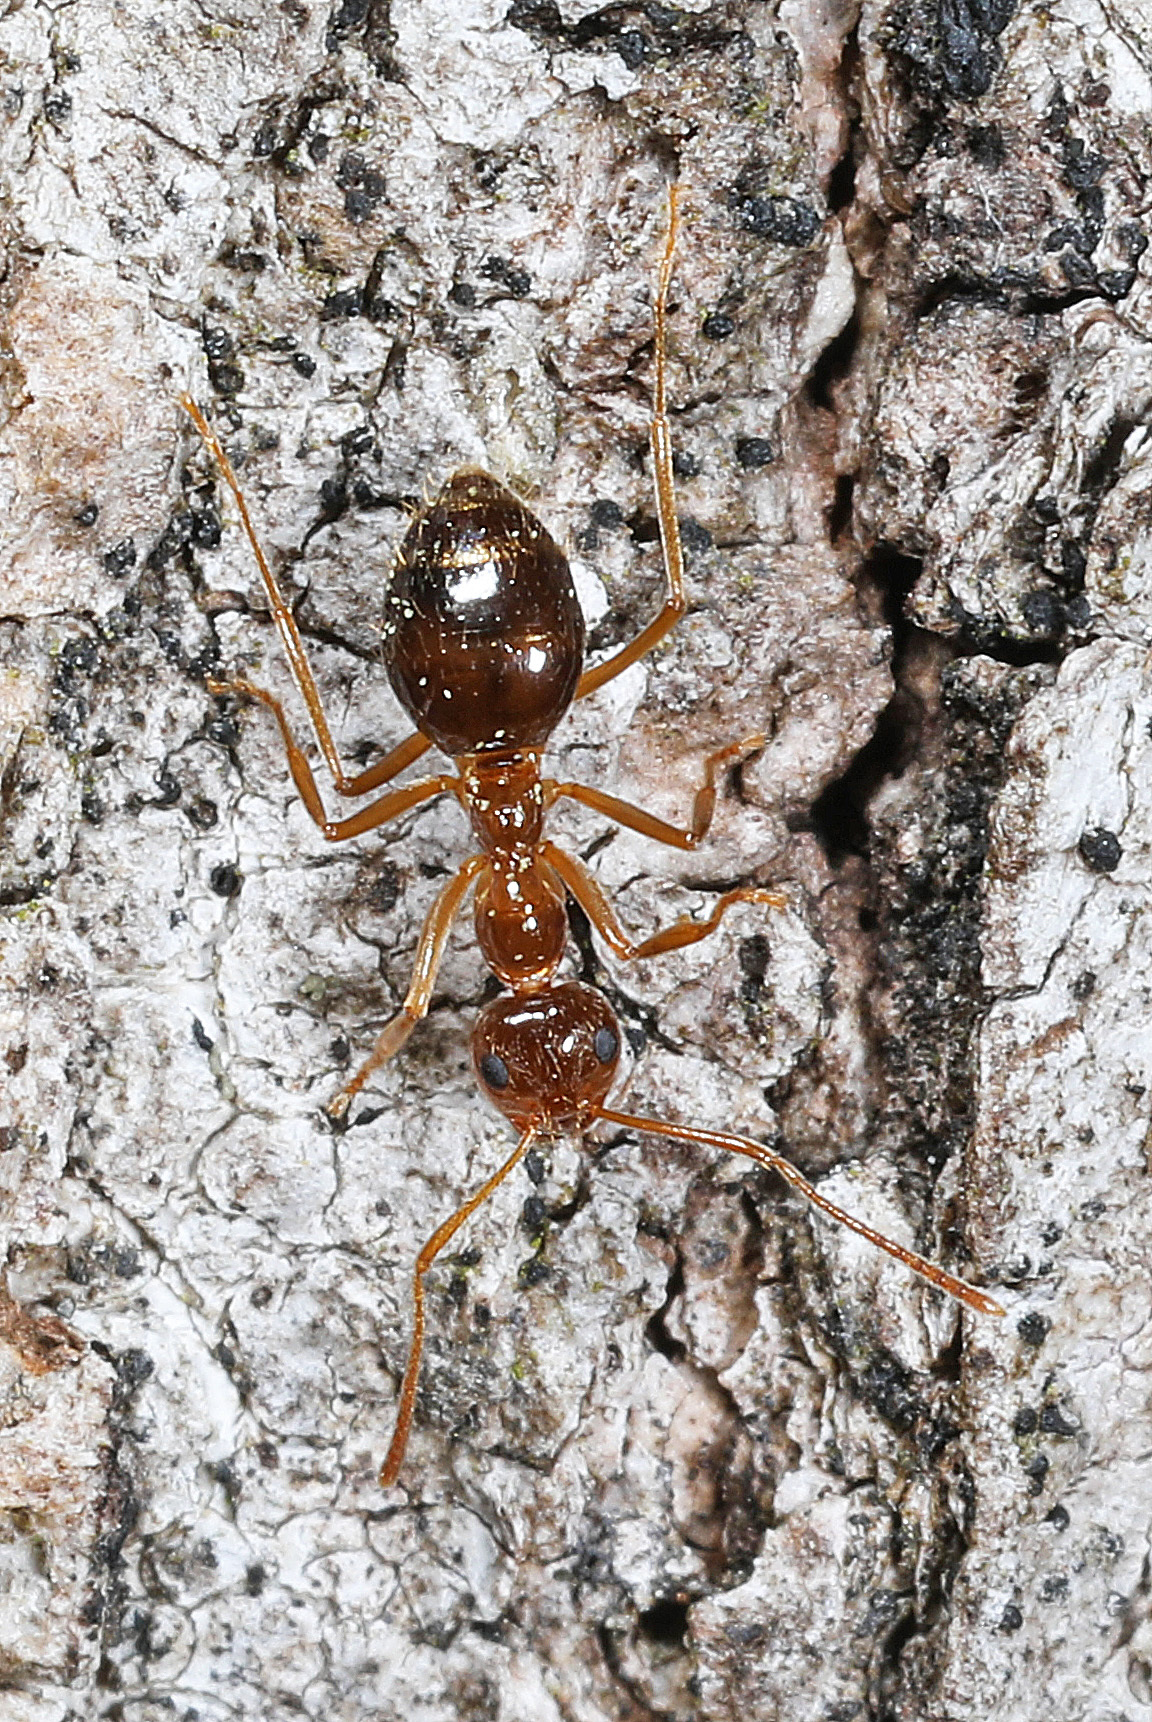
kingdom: Animalia
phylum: Arthropoda
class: Insecta
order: Hymenoptera
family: Formicidae
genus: Prenolepis
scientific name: Prenolepis imparis
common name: Small honey ant
